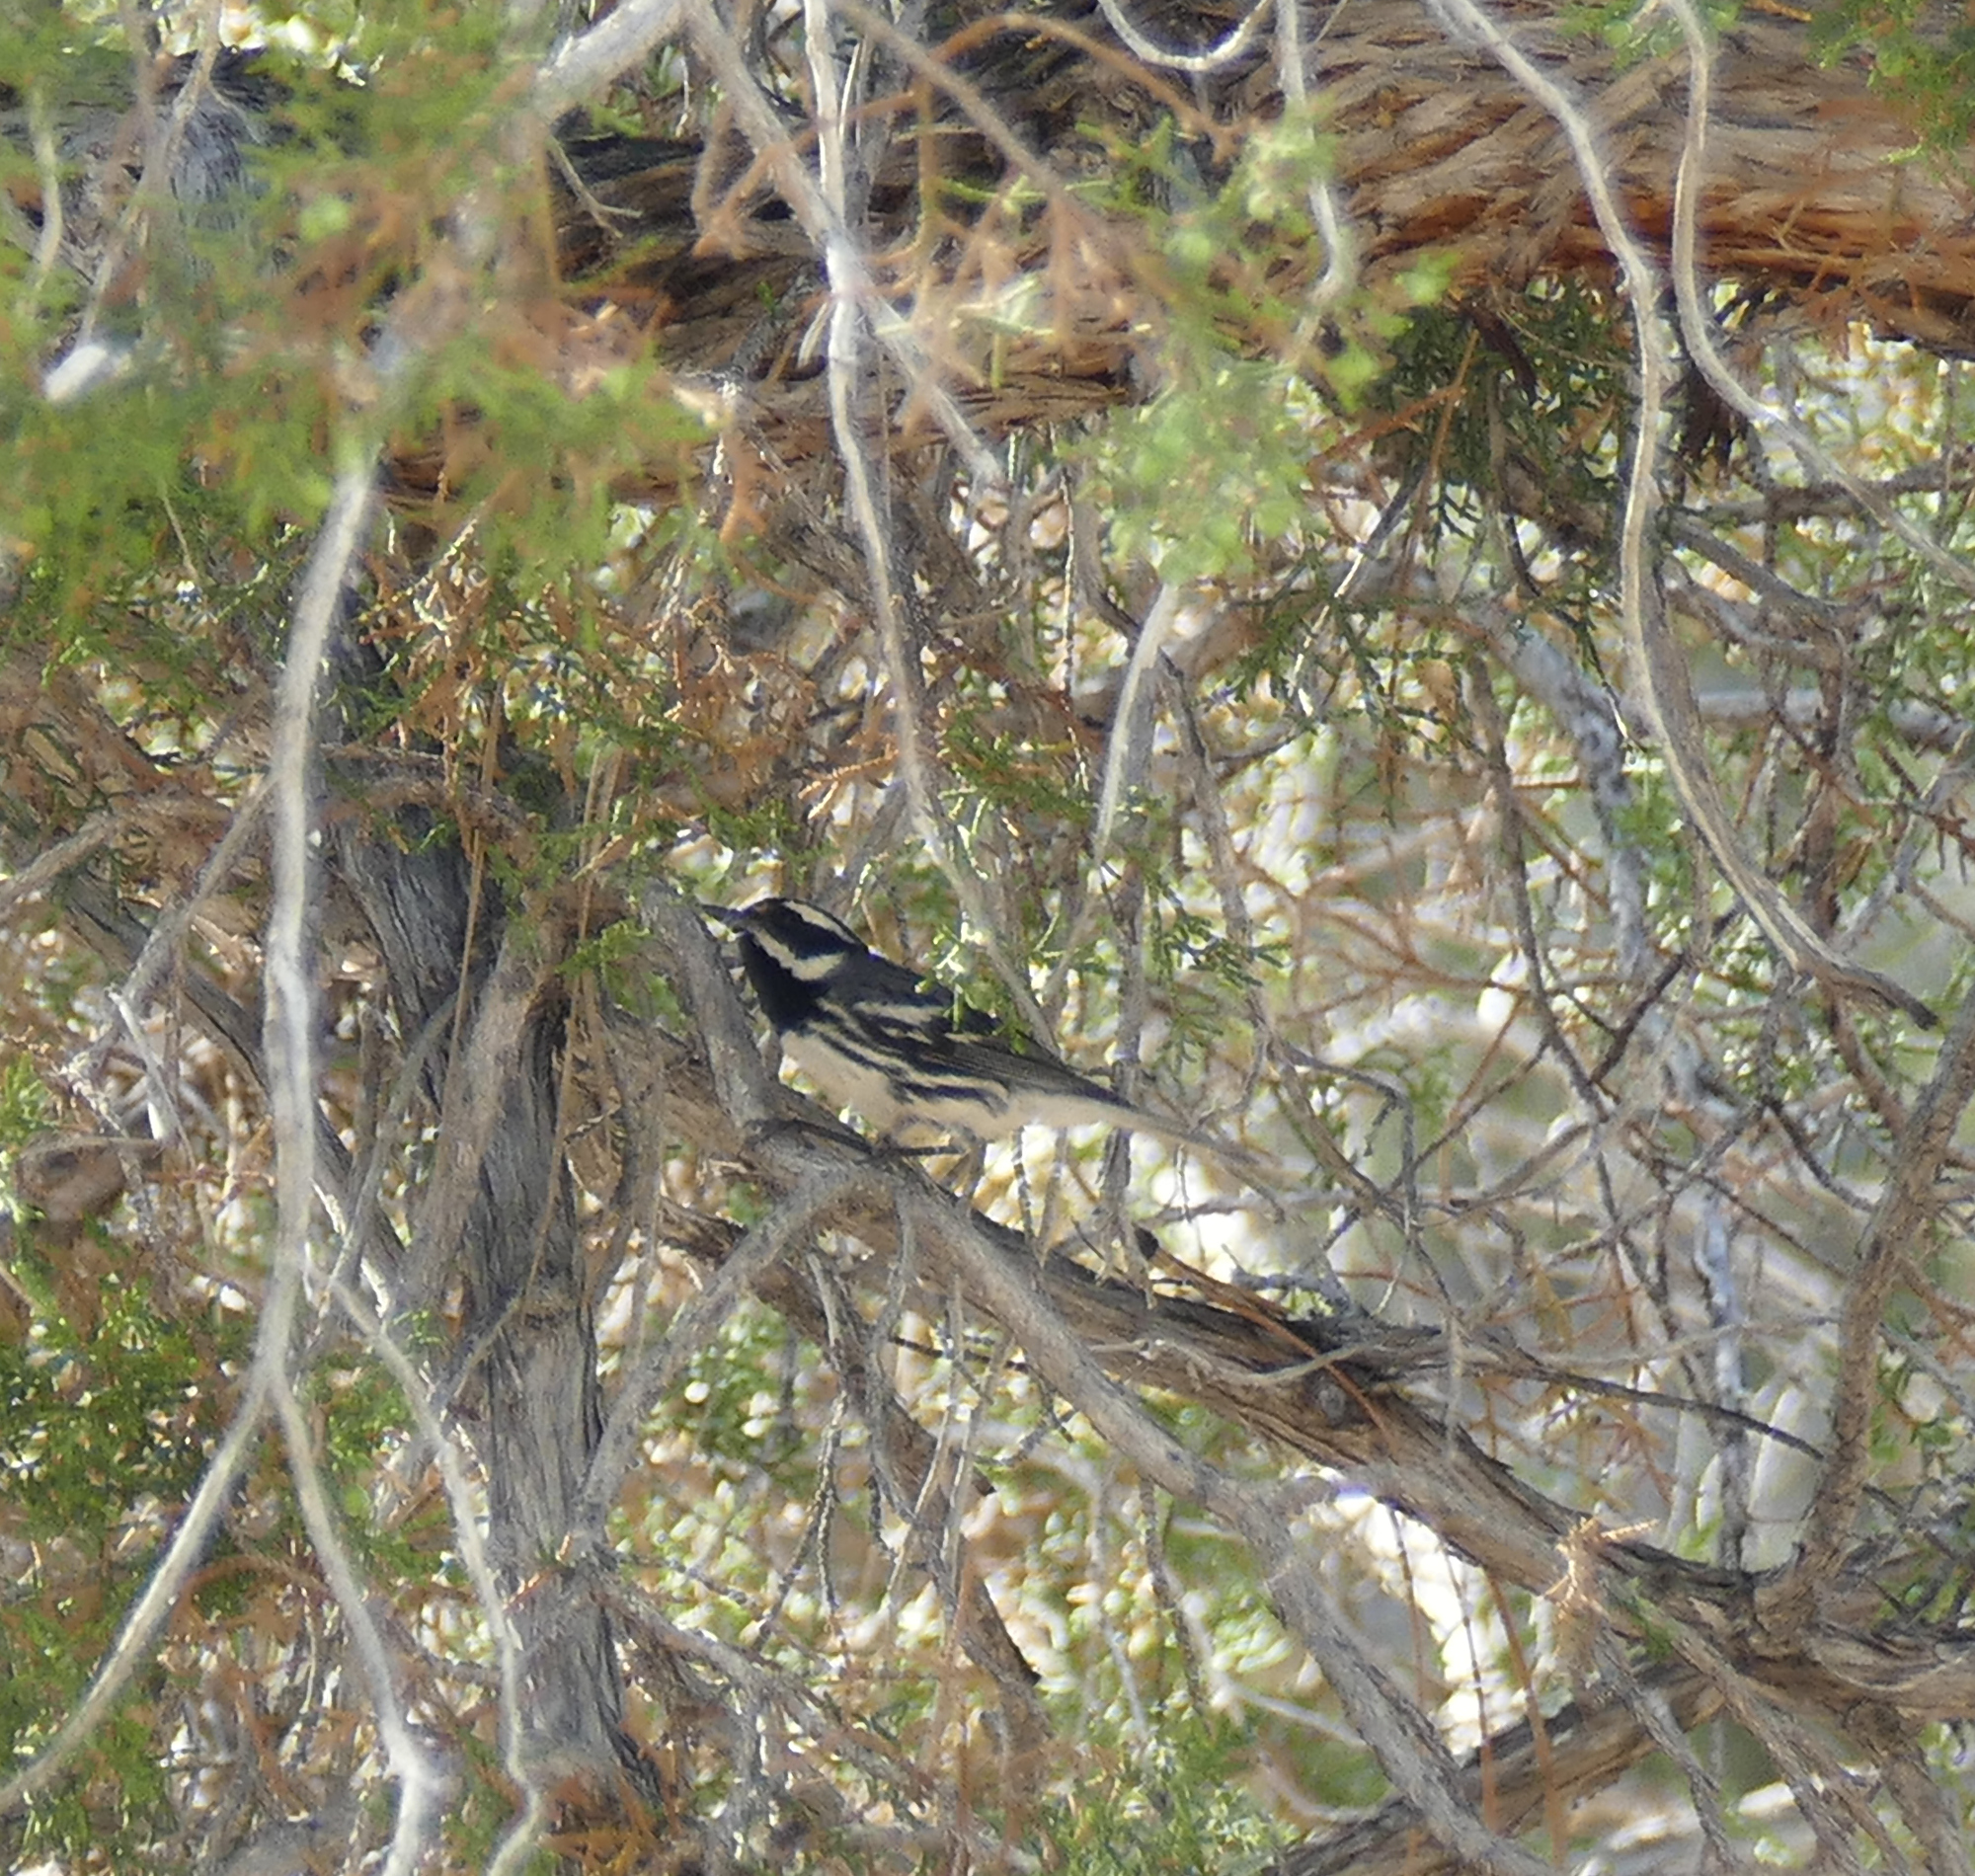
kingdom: Animalia
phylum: Chordata
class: Aves
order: Passeriformes
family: Parulidae
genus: Setophaga
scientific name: Setophaga nigrescens
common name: Black-throated gray warbler
